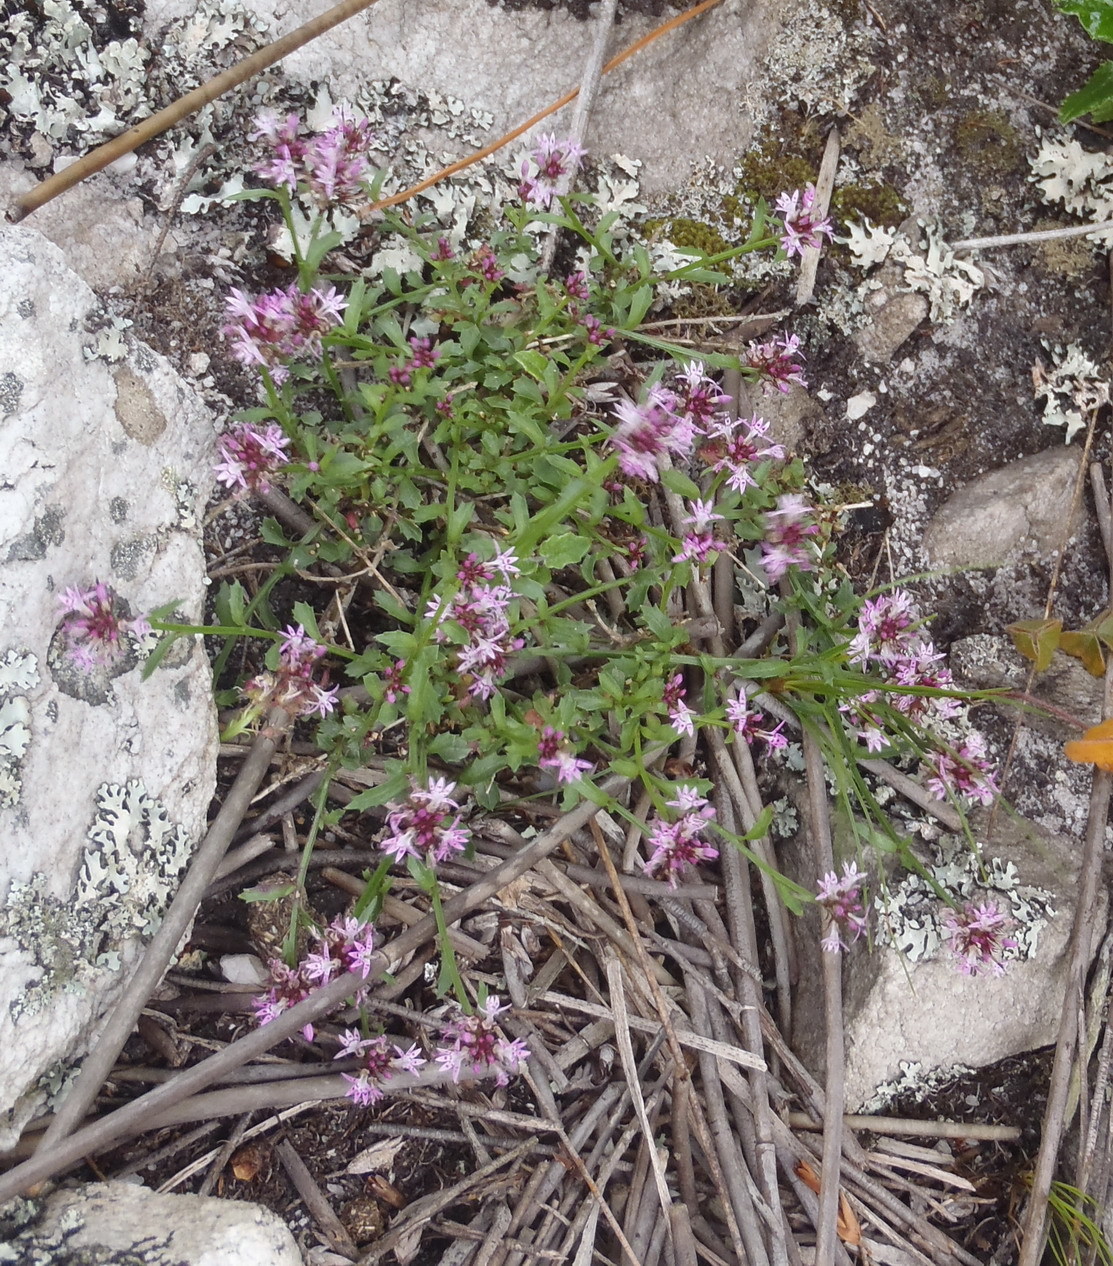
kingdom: Plantae
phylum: Tracheophyta
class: Magnoliopsida
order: Asterales
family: Campanulaceae
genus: Lobelia
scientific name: Lobelia jasionoides
